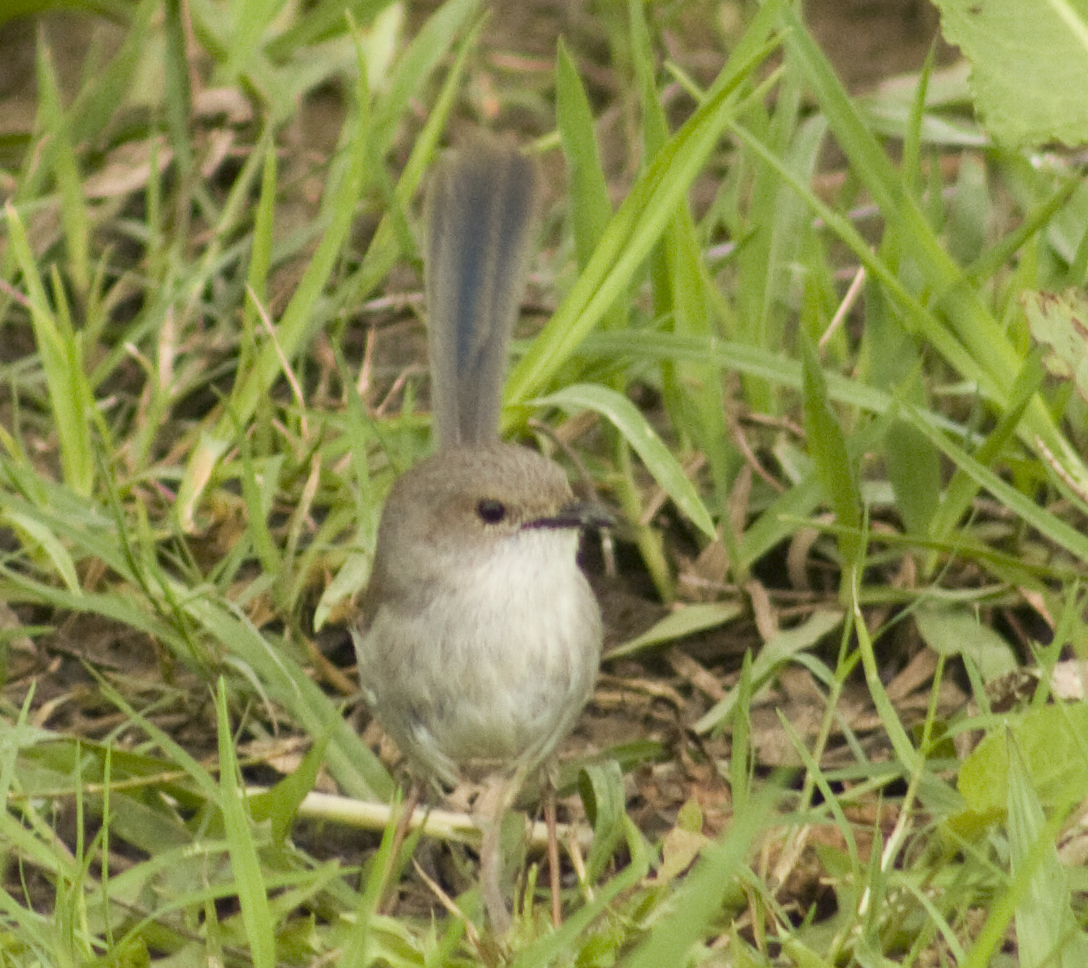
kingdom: Animalia
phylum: Chordata
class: Aves
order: Passeriformes
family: Maluridae
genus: Malurus
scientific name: Malurus cyaneus
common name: Superb fairywren
